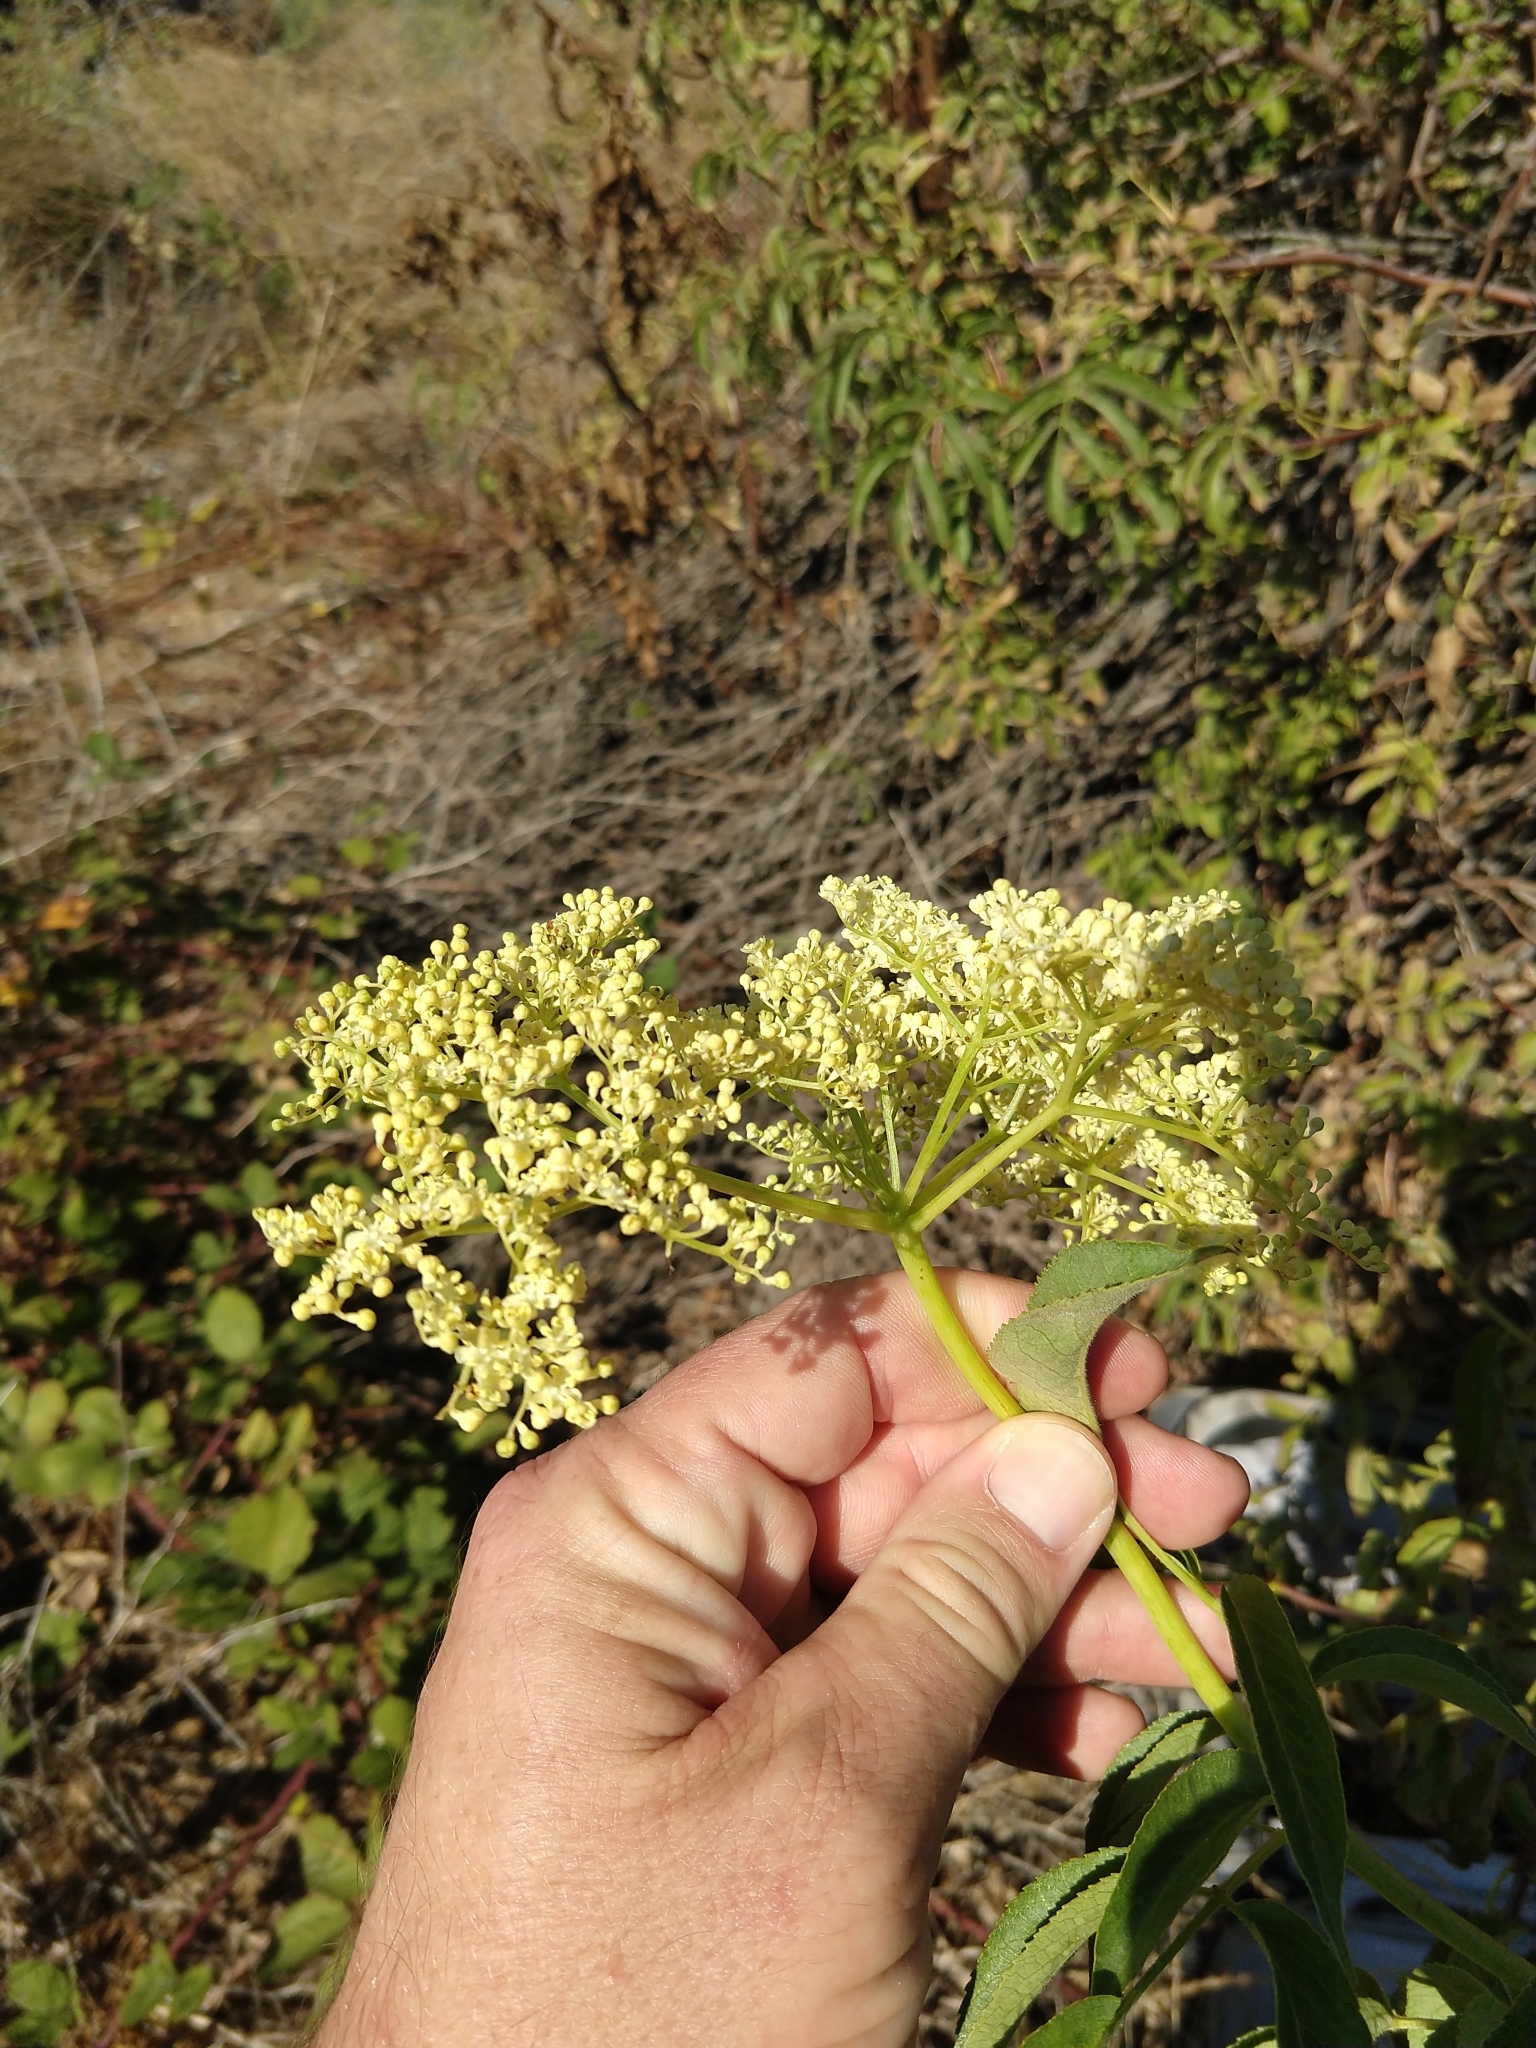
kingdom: Plantae
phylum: Tracheophyta
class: Magnoliopsida
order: Dipsacales
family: Viburnaceae
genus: Sambucus
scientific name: Sambucus cerulea
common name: Blue elder
